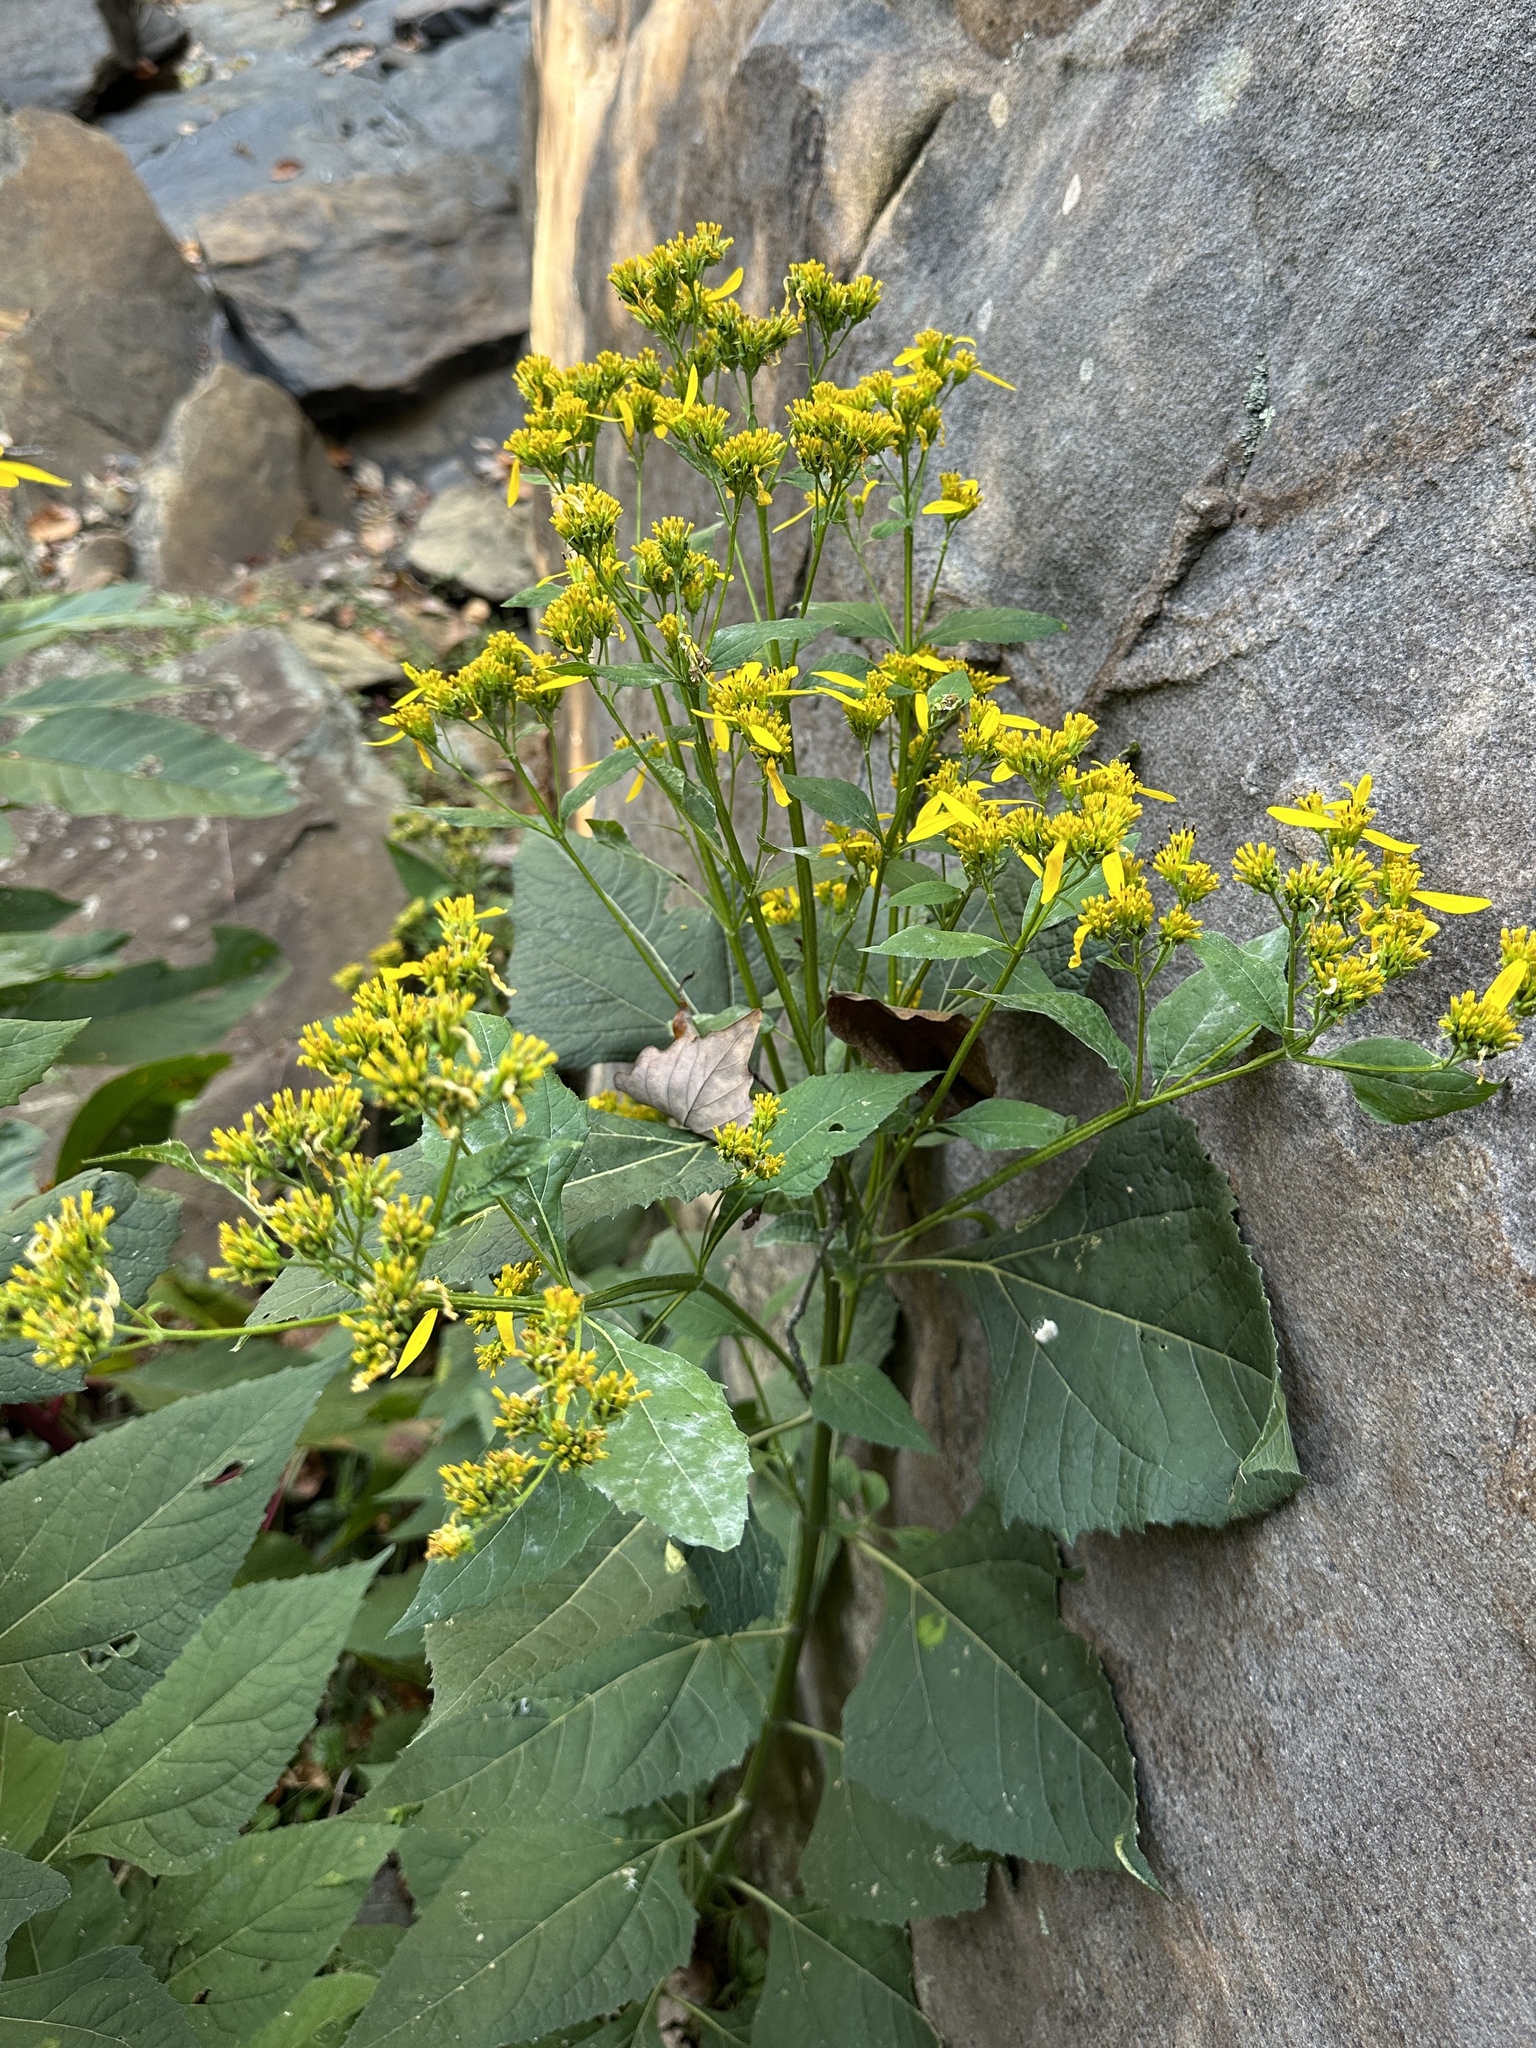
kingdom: Plantae
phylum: Tracheophyta
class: Magnoliopsida
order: Asterales
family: Asteraceae
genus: Verbesina
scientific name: Verbesina occidentalis
